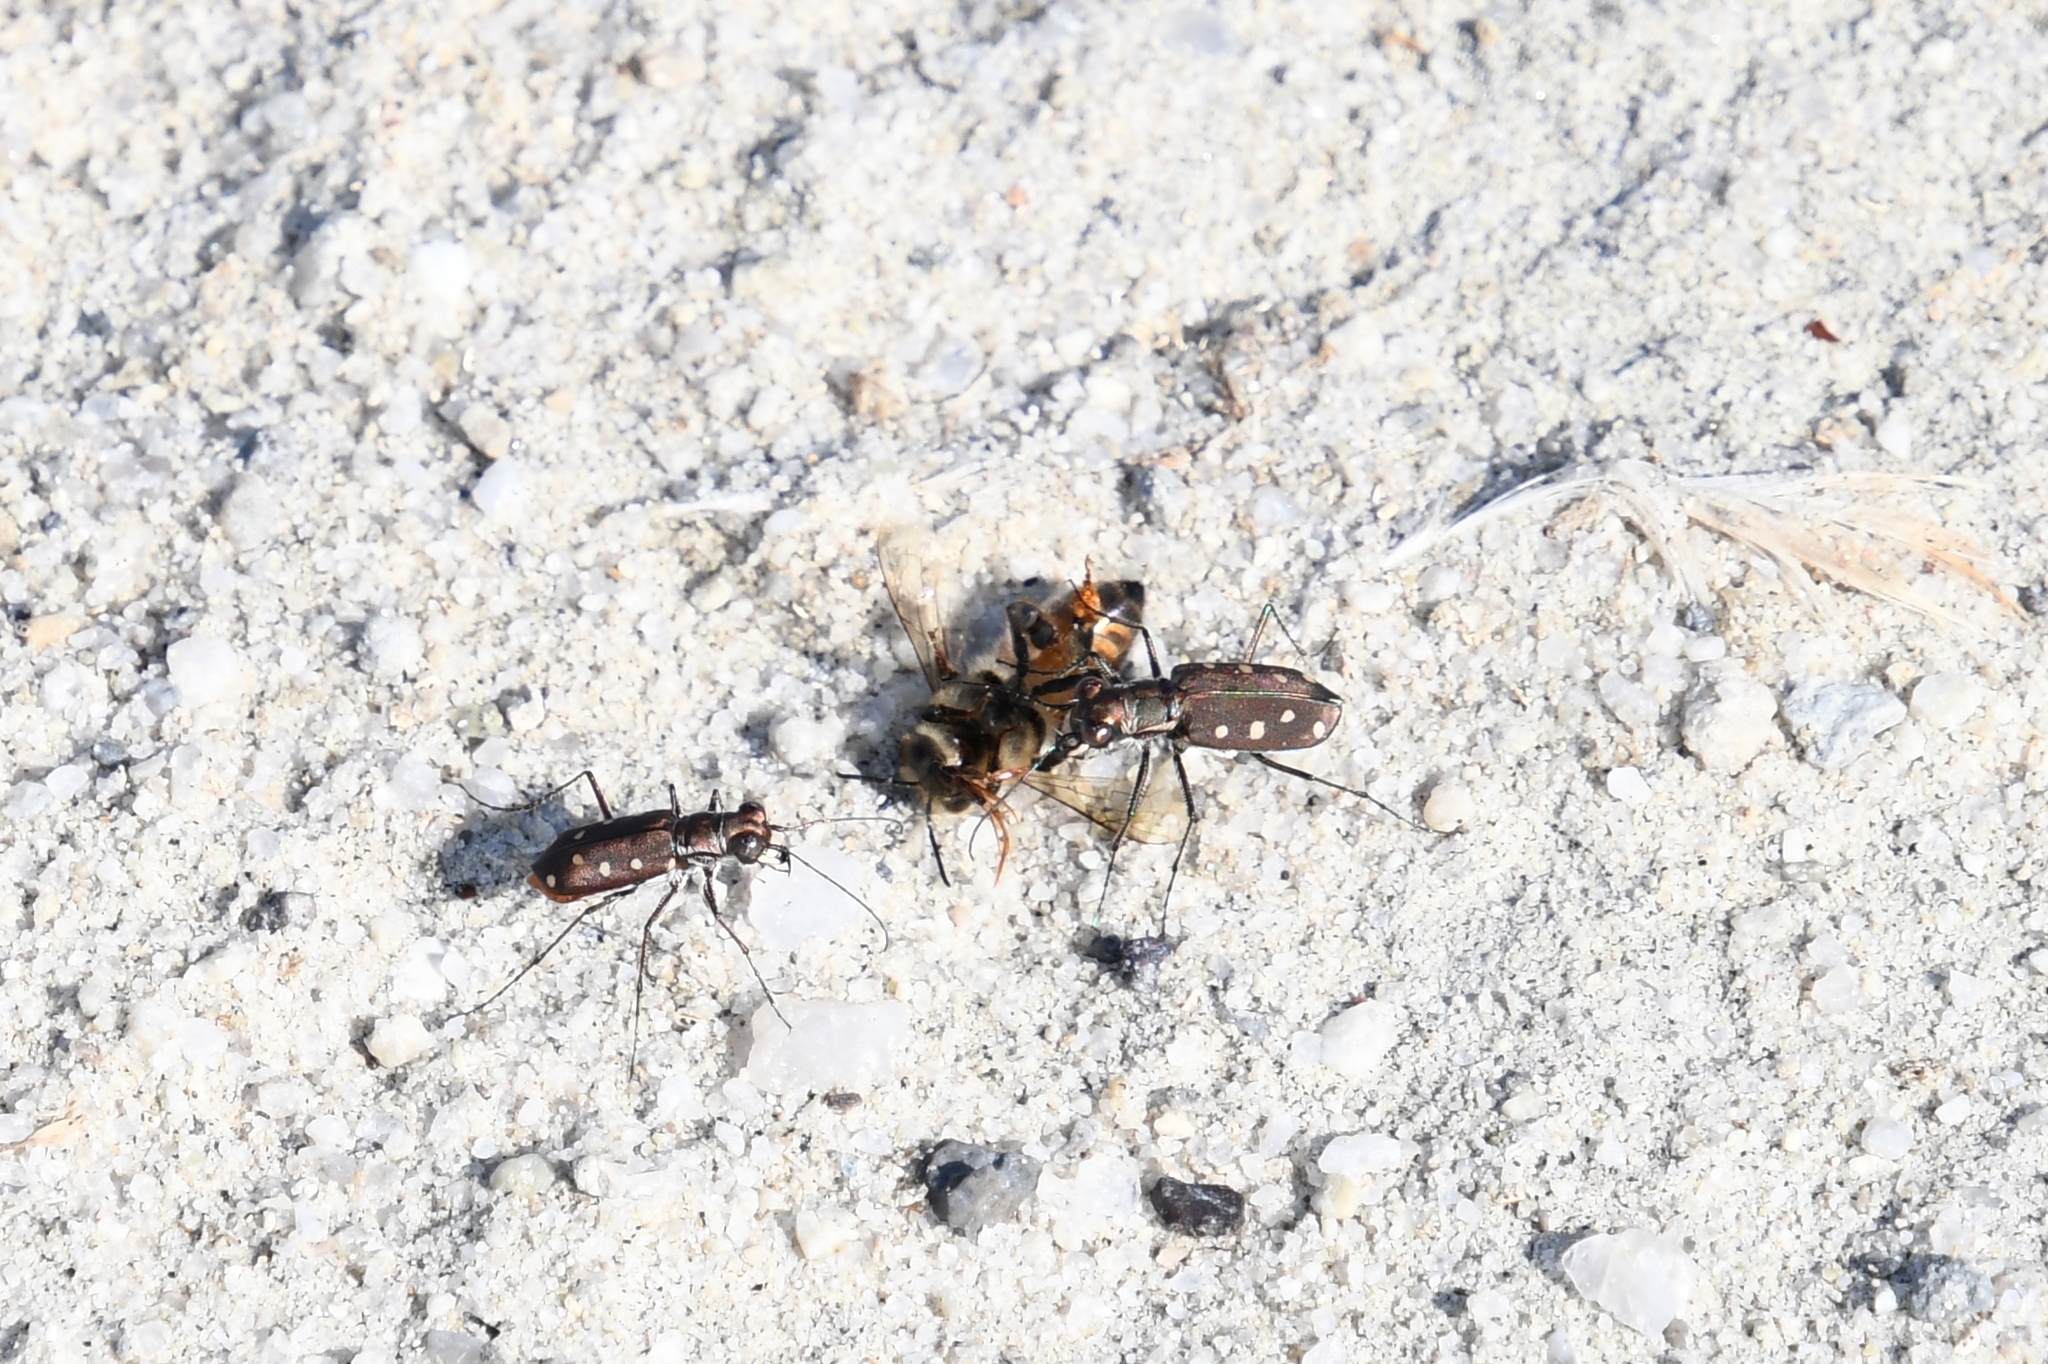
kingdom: Animalia
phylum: Arthropoda
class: Insecta
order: Coleoptera
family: Carabidae
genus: Cicindela
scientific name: Cicindela ocellata
